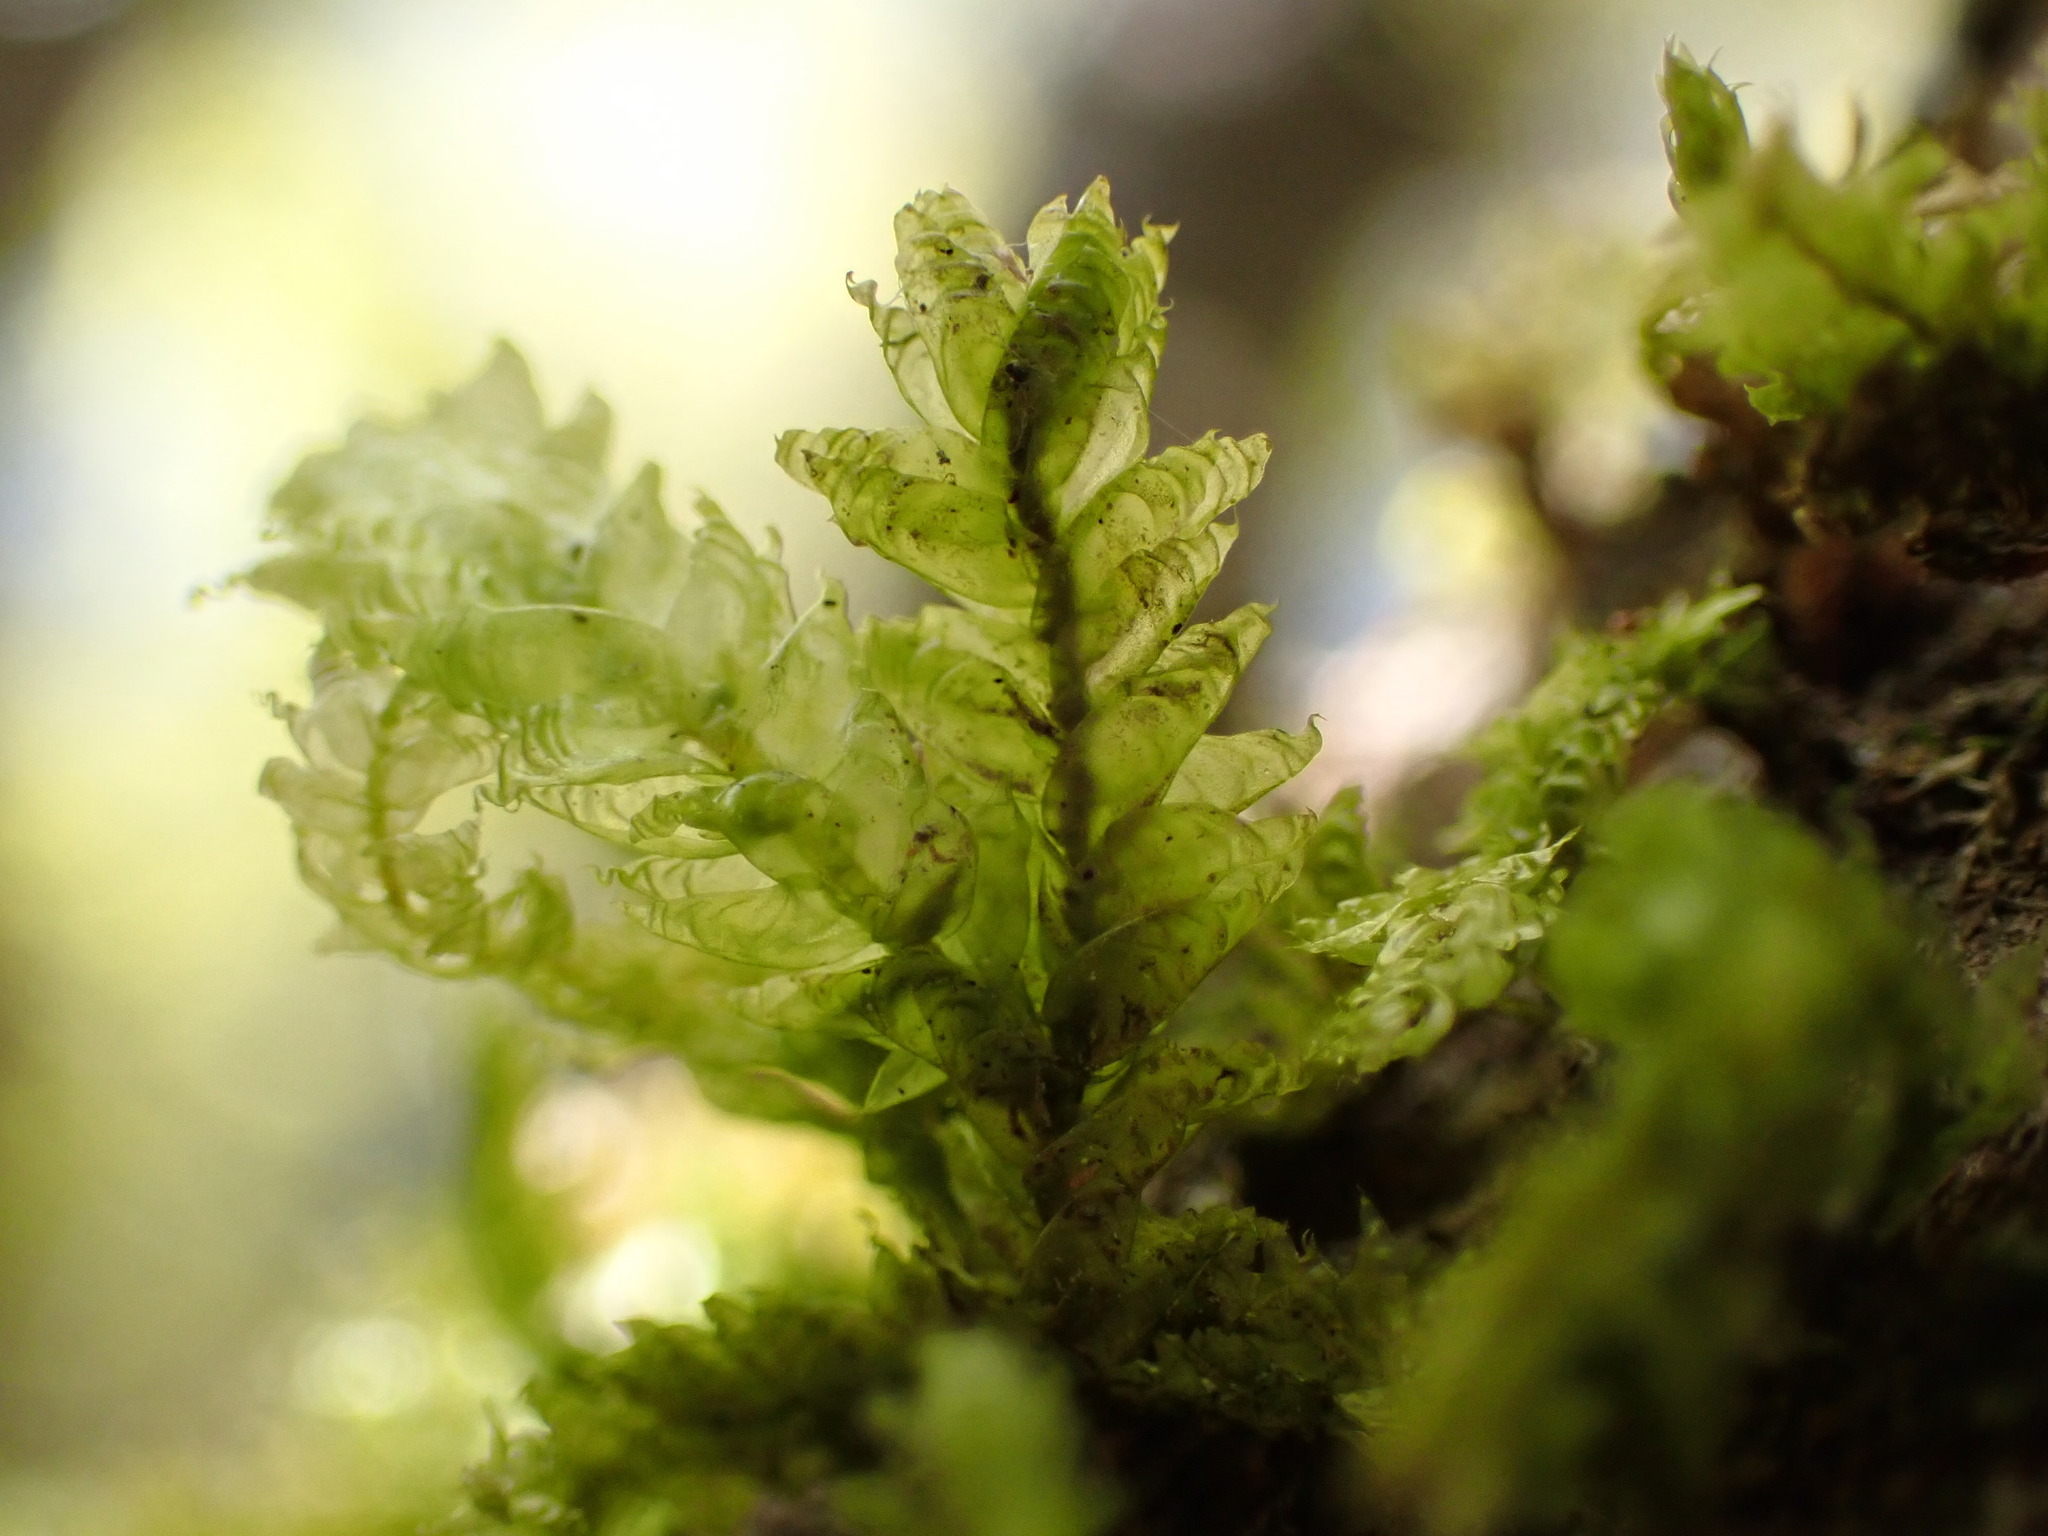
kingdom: Plantae
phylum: Bryophyta
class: Bryopsida
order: Hypnales
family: Neckeraceae
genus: Alleniella
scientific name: Alleniella hymenodonta
